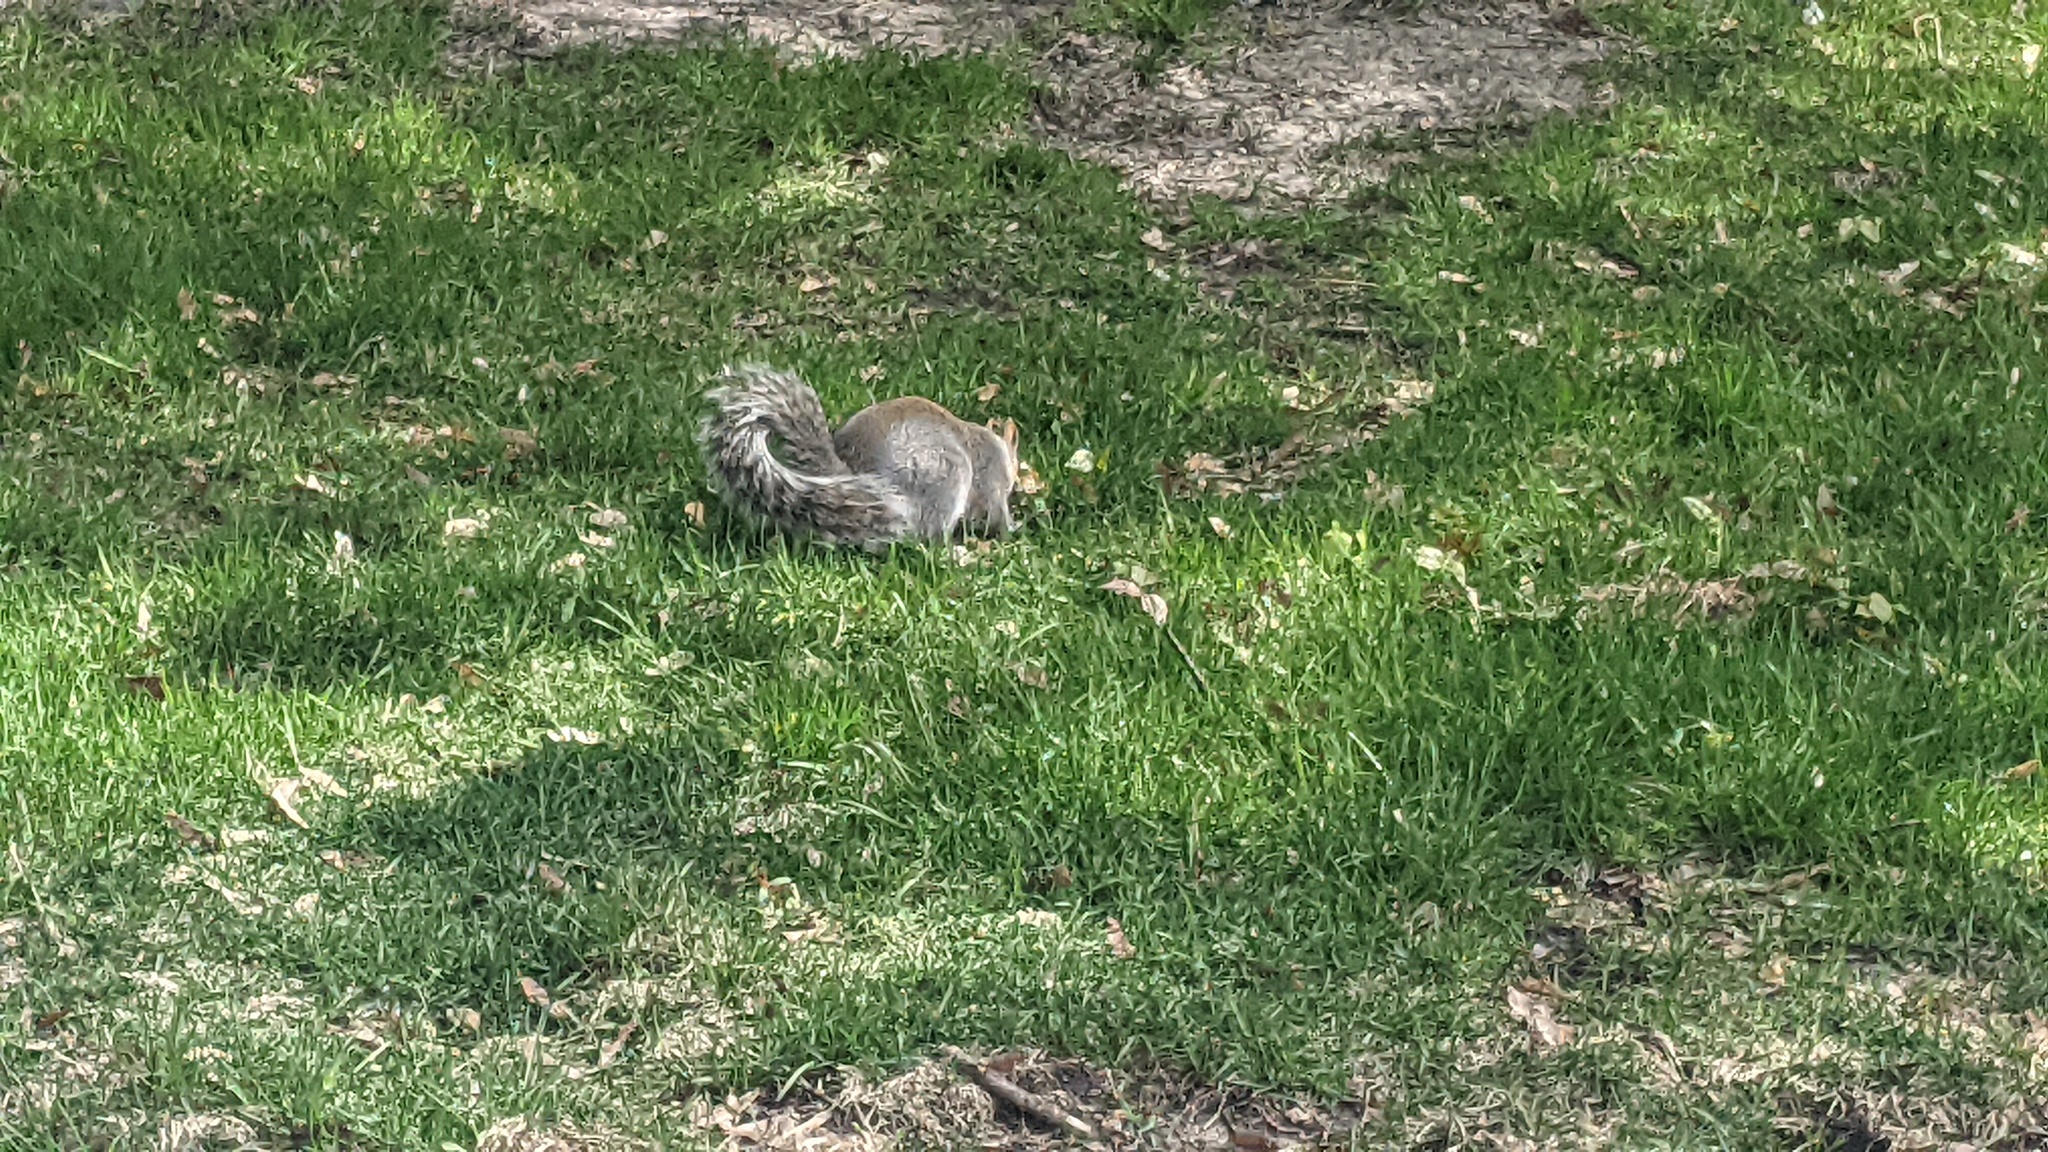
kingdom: Animalia
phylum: Chordata
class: Mammalia
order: Rodentia
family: Sciuridae
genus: Sciurus
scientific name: Sciurus carolinensis
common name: Eastern gray squirrel
